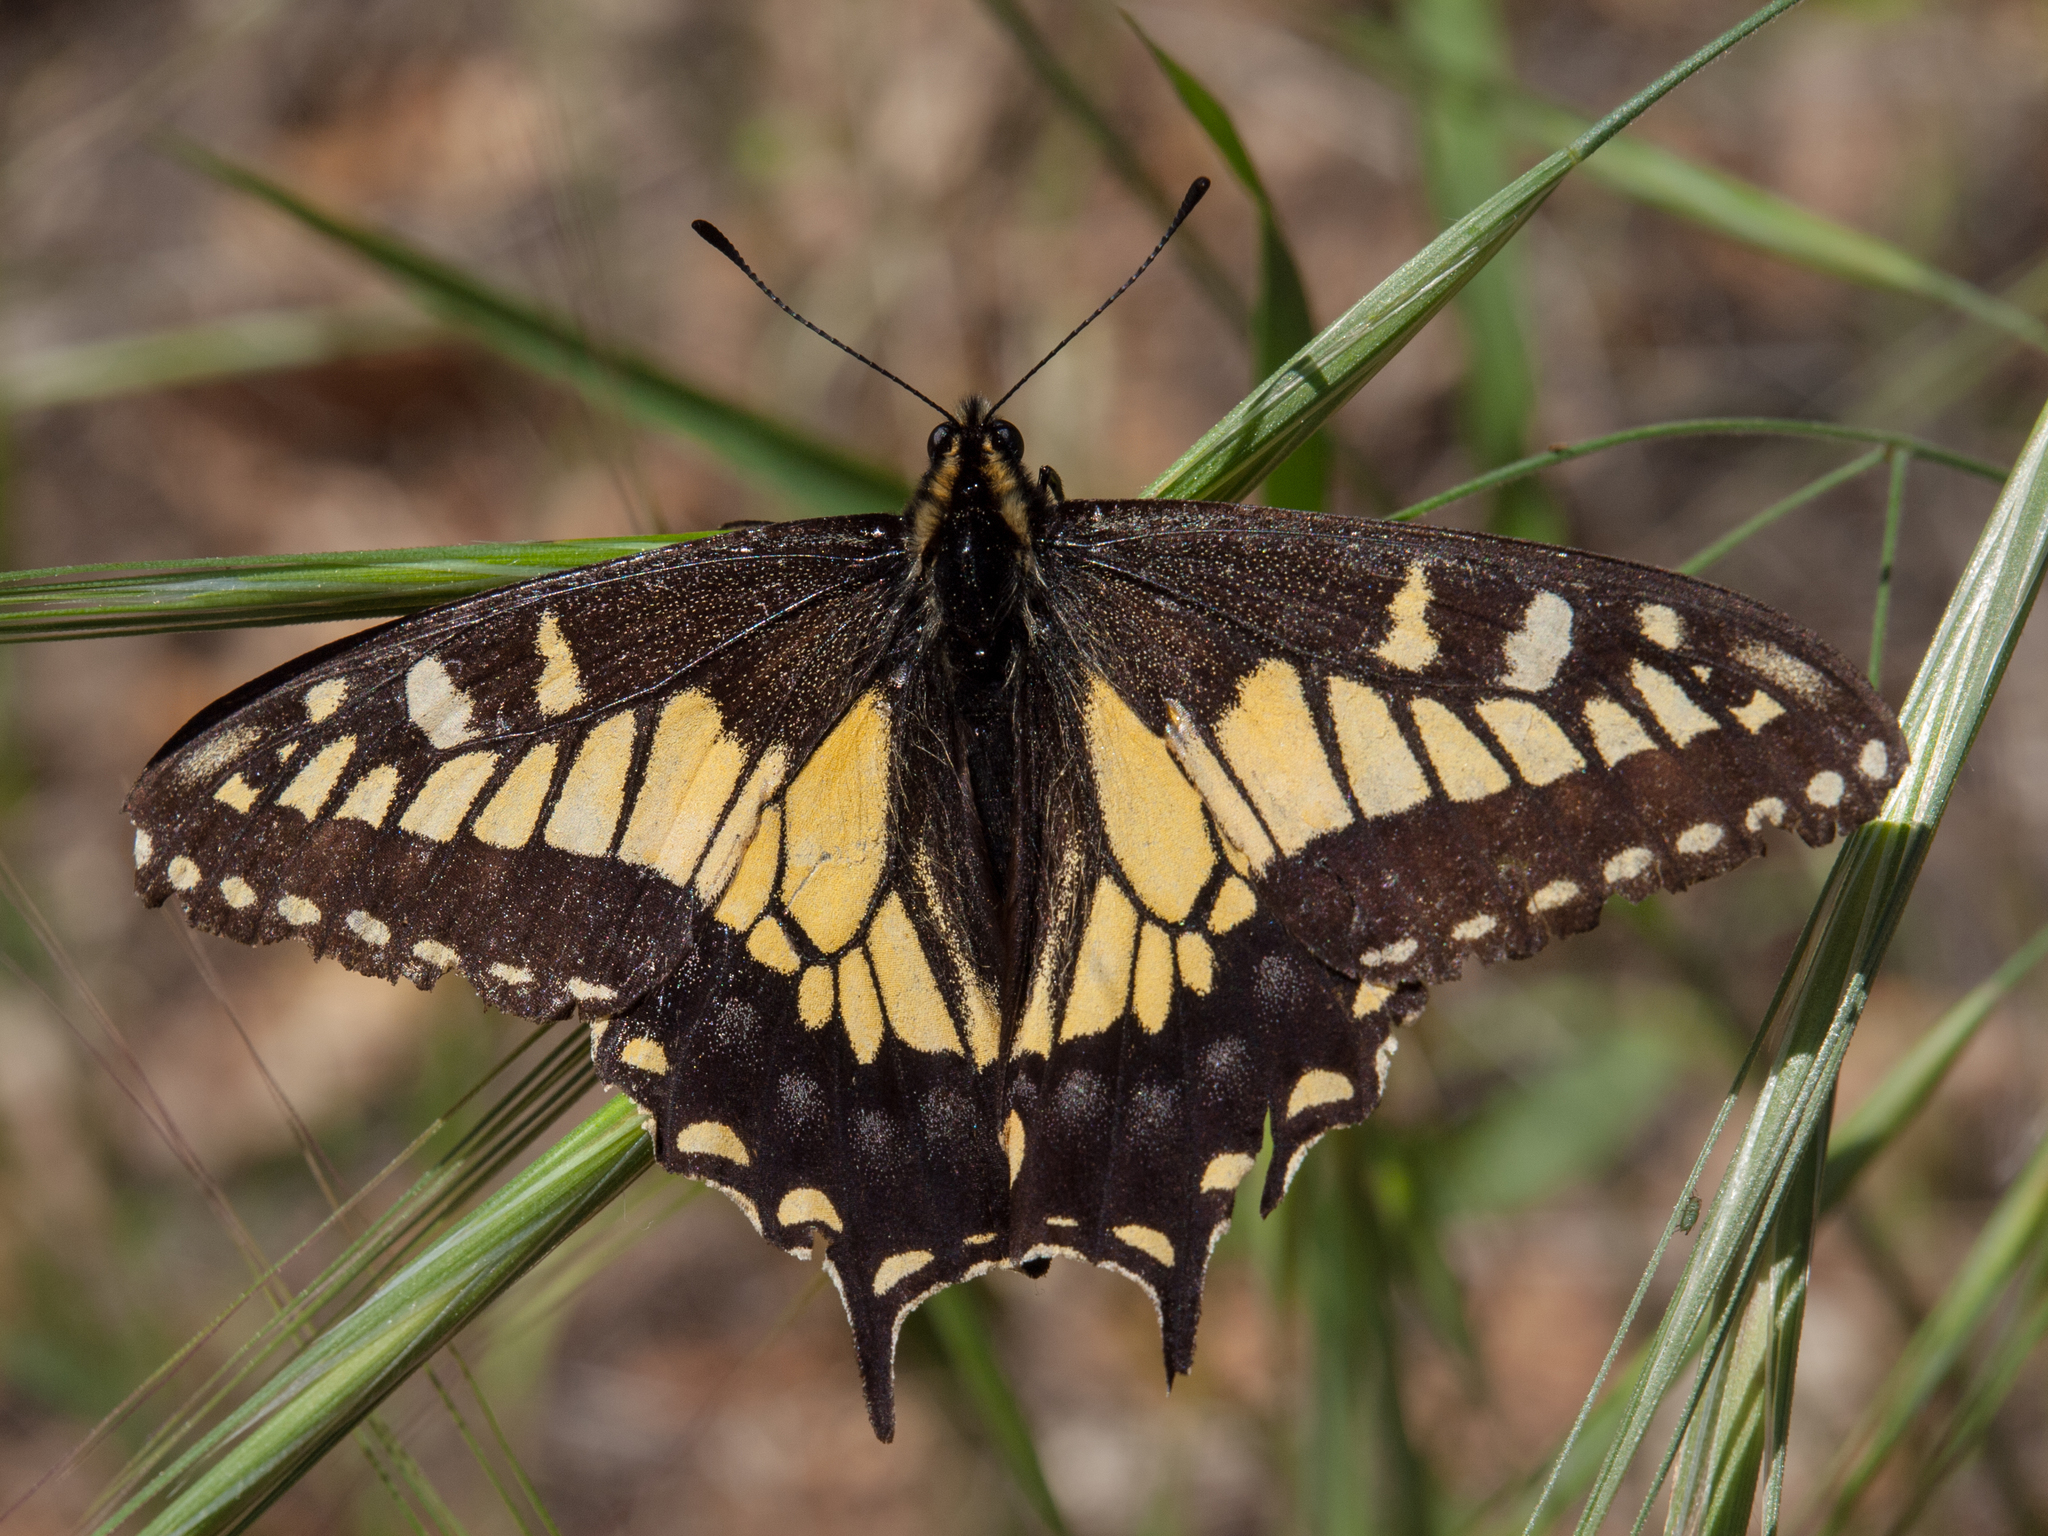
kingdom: Animalia
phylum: Arthropoda
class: Insecta
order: Lepidoptera
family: Papilionidae
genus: Papilio
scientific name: Papilio zelicaon
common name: Anise swallowtail
